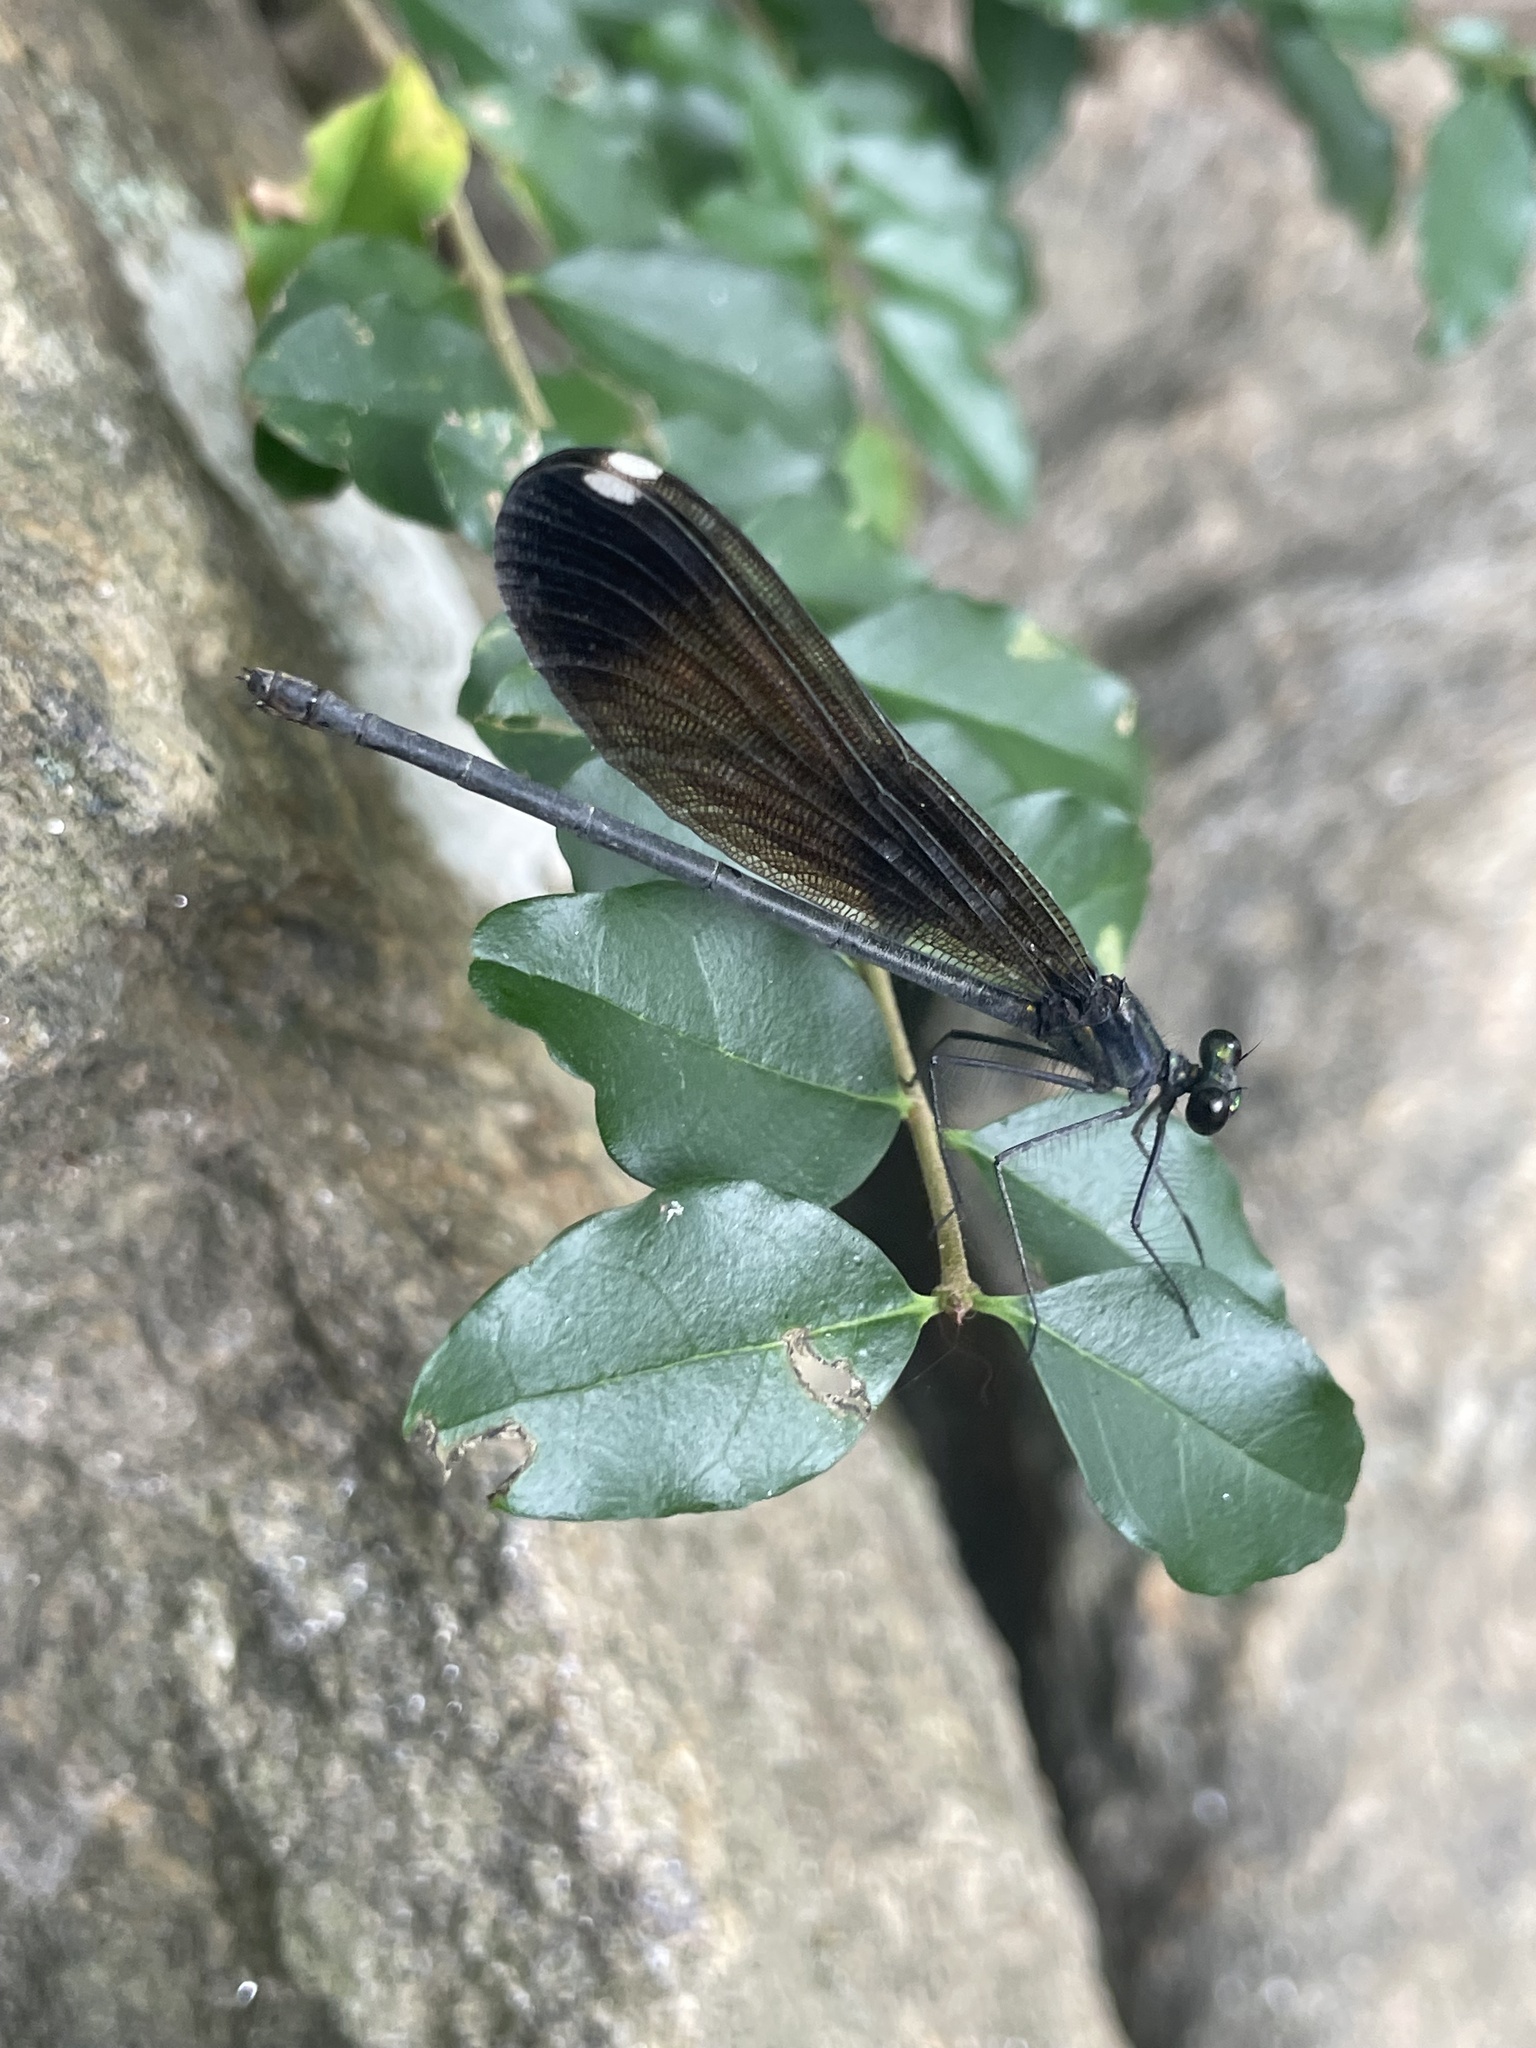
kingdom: Animalia
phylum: Arthropoda
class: Insecta
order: Odonata
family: Calopterygidae
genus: Calopteryx
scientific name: Calopteryx maculata
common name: Ebony jewelwing
